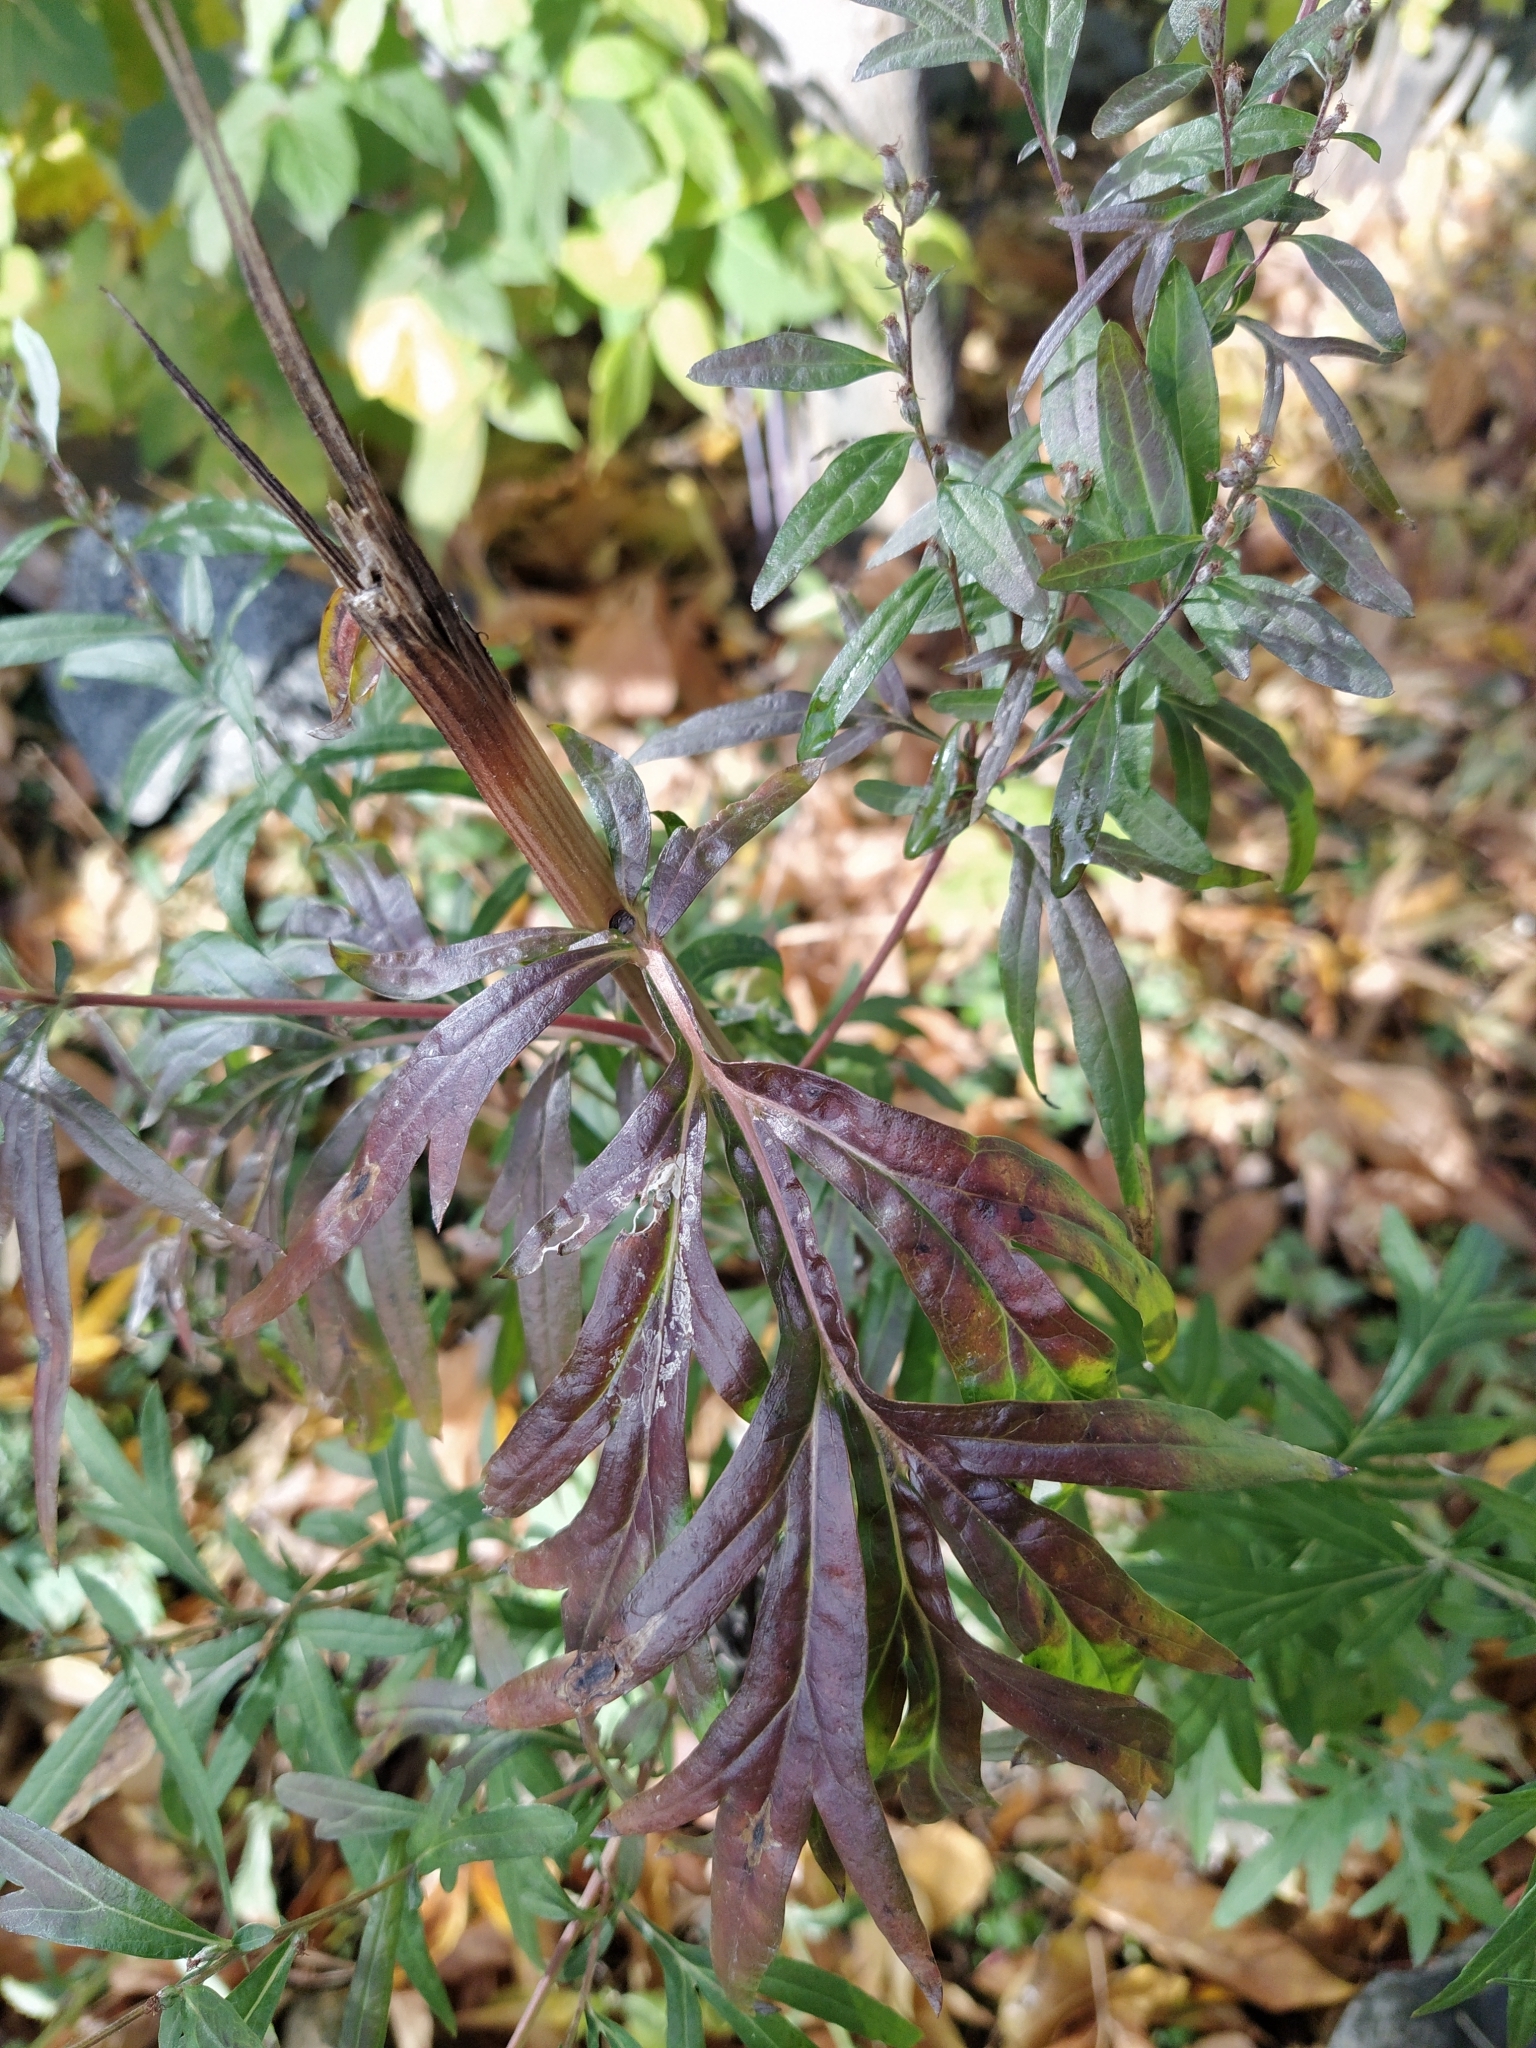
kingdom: Plantae
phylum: Tracheophyta
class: Magnoliopsida
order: Asterales
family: Asteraceae
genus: Artemisia
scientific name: Artemisia vulgaris
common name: Mugwort
